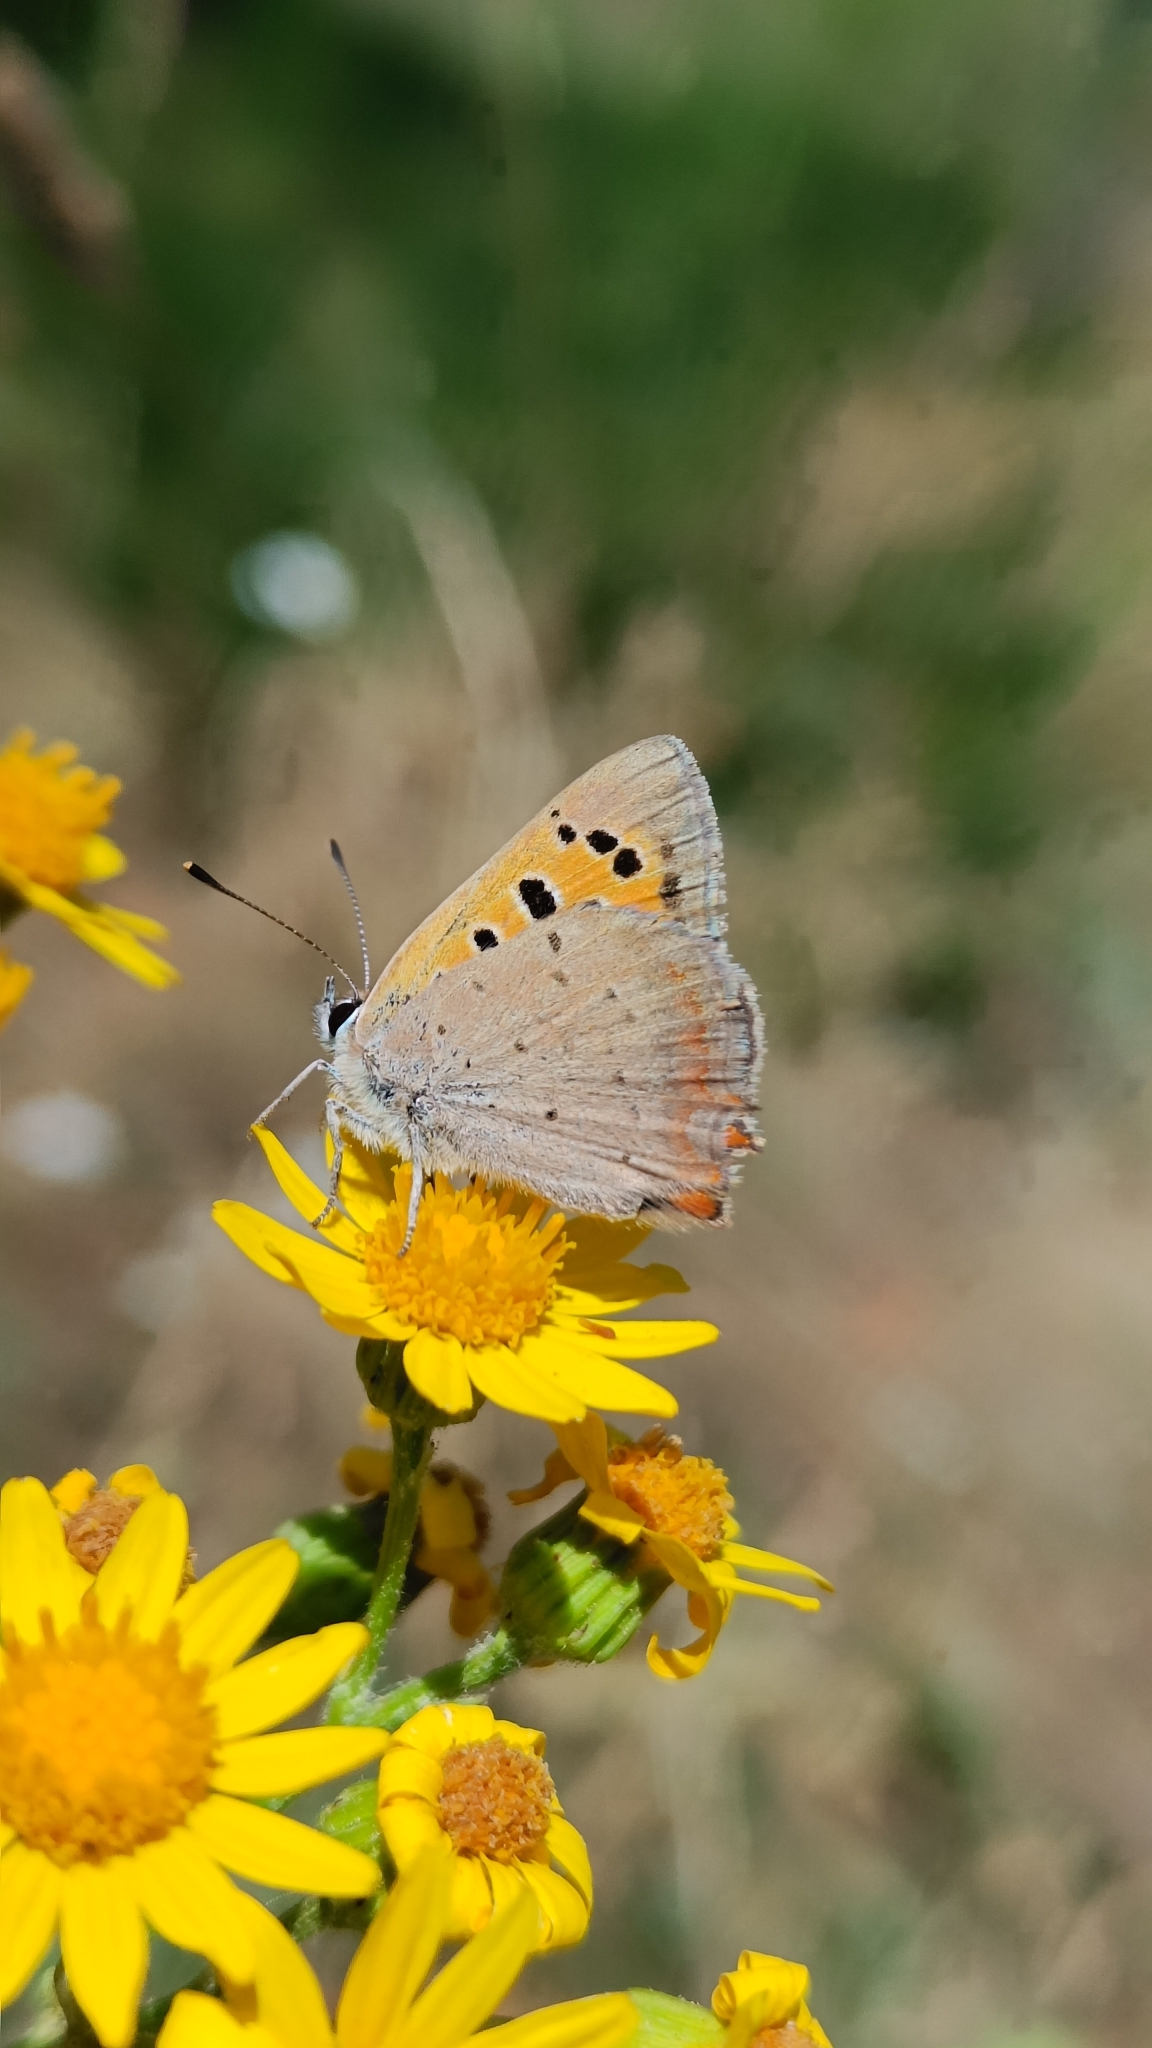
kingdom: Animalia
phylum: Arthropoda
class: Insecta
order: Lepidoptera
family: Lycaenidae
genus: Lycaena
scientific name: Lycaena phlaeas
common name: Small copper
